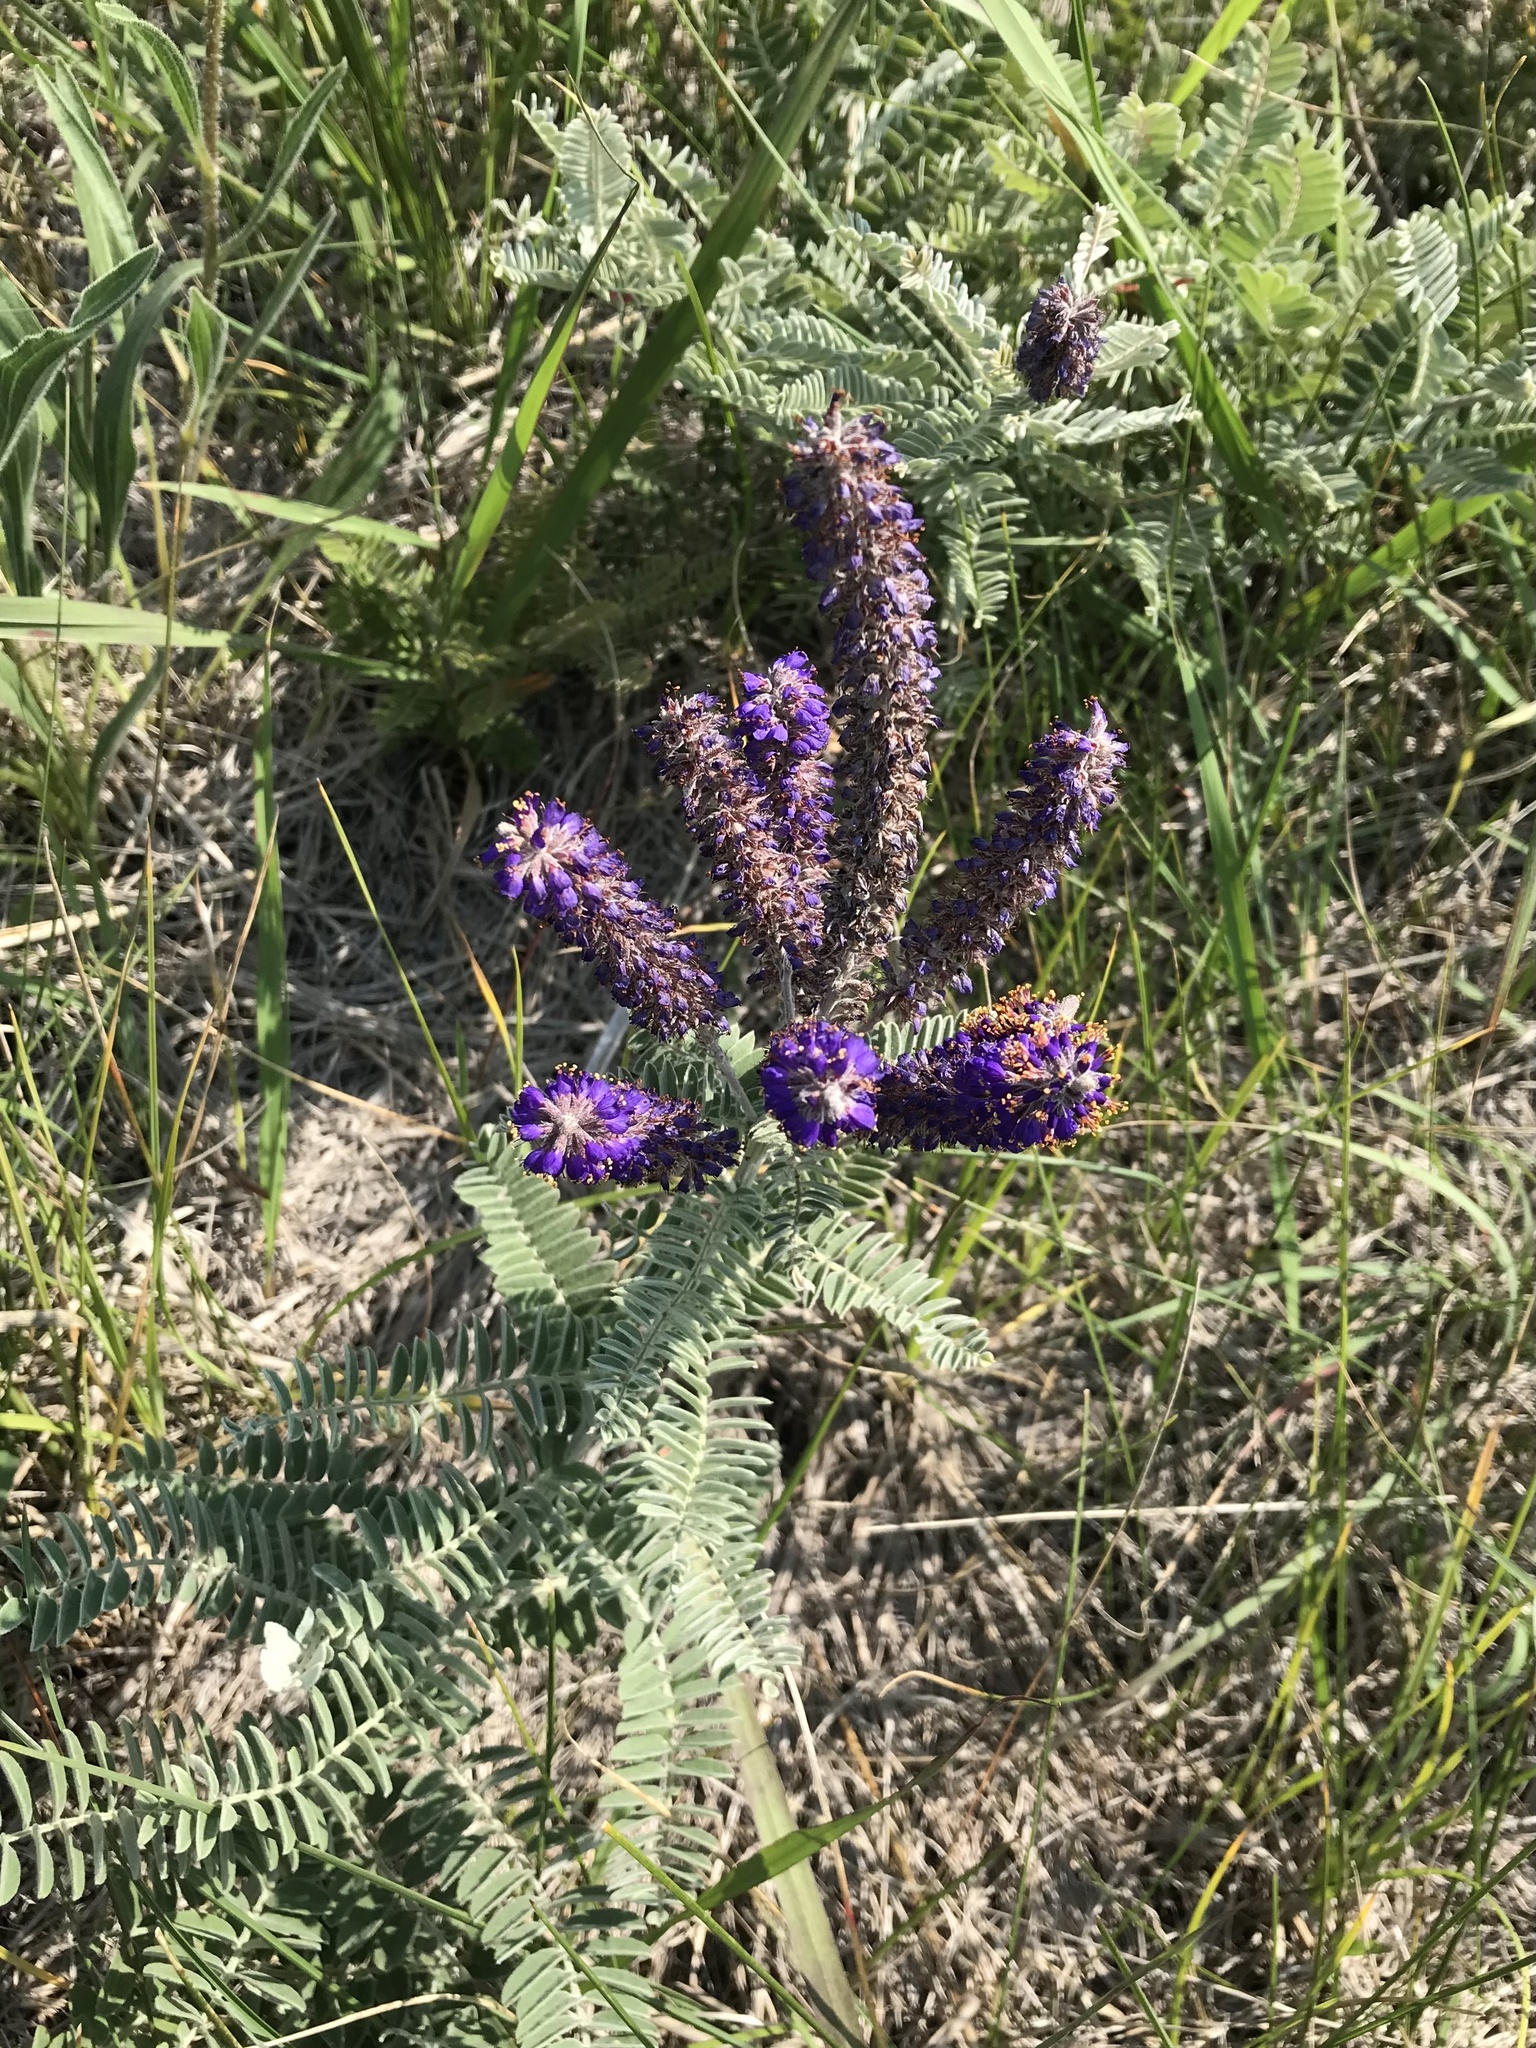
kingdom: Plantae
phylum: Tracheophyta
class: Magnoliopsida
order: Fabales
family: Fabaceae
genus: Amorpha
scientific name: Amorpha canescens
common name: Leadplant
